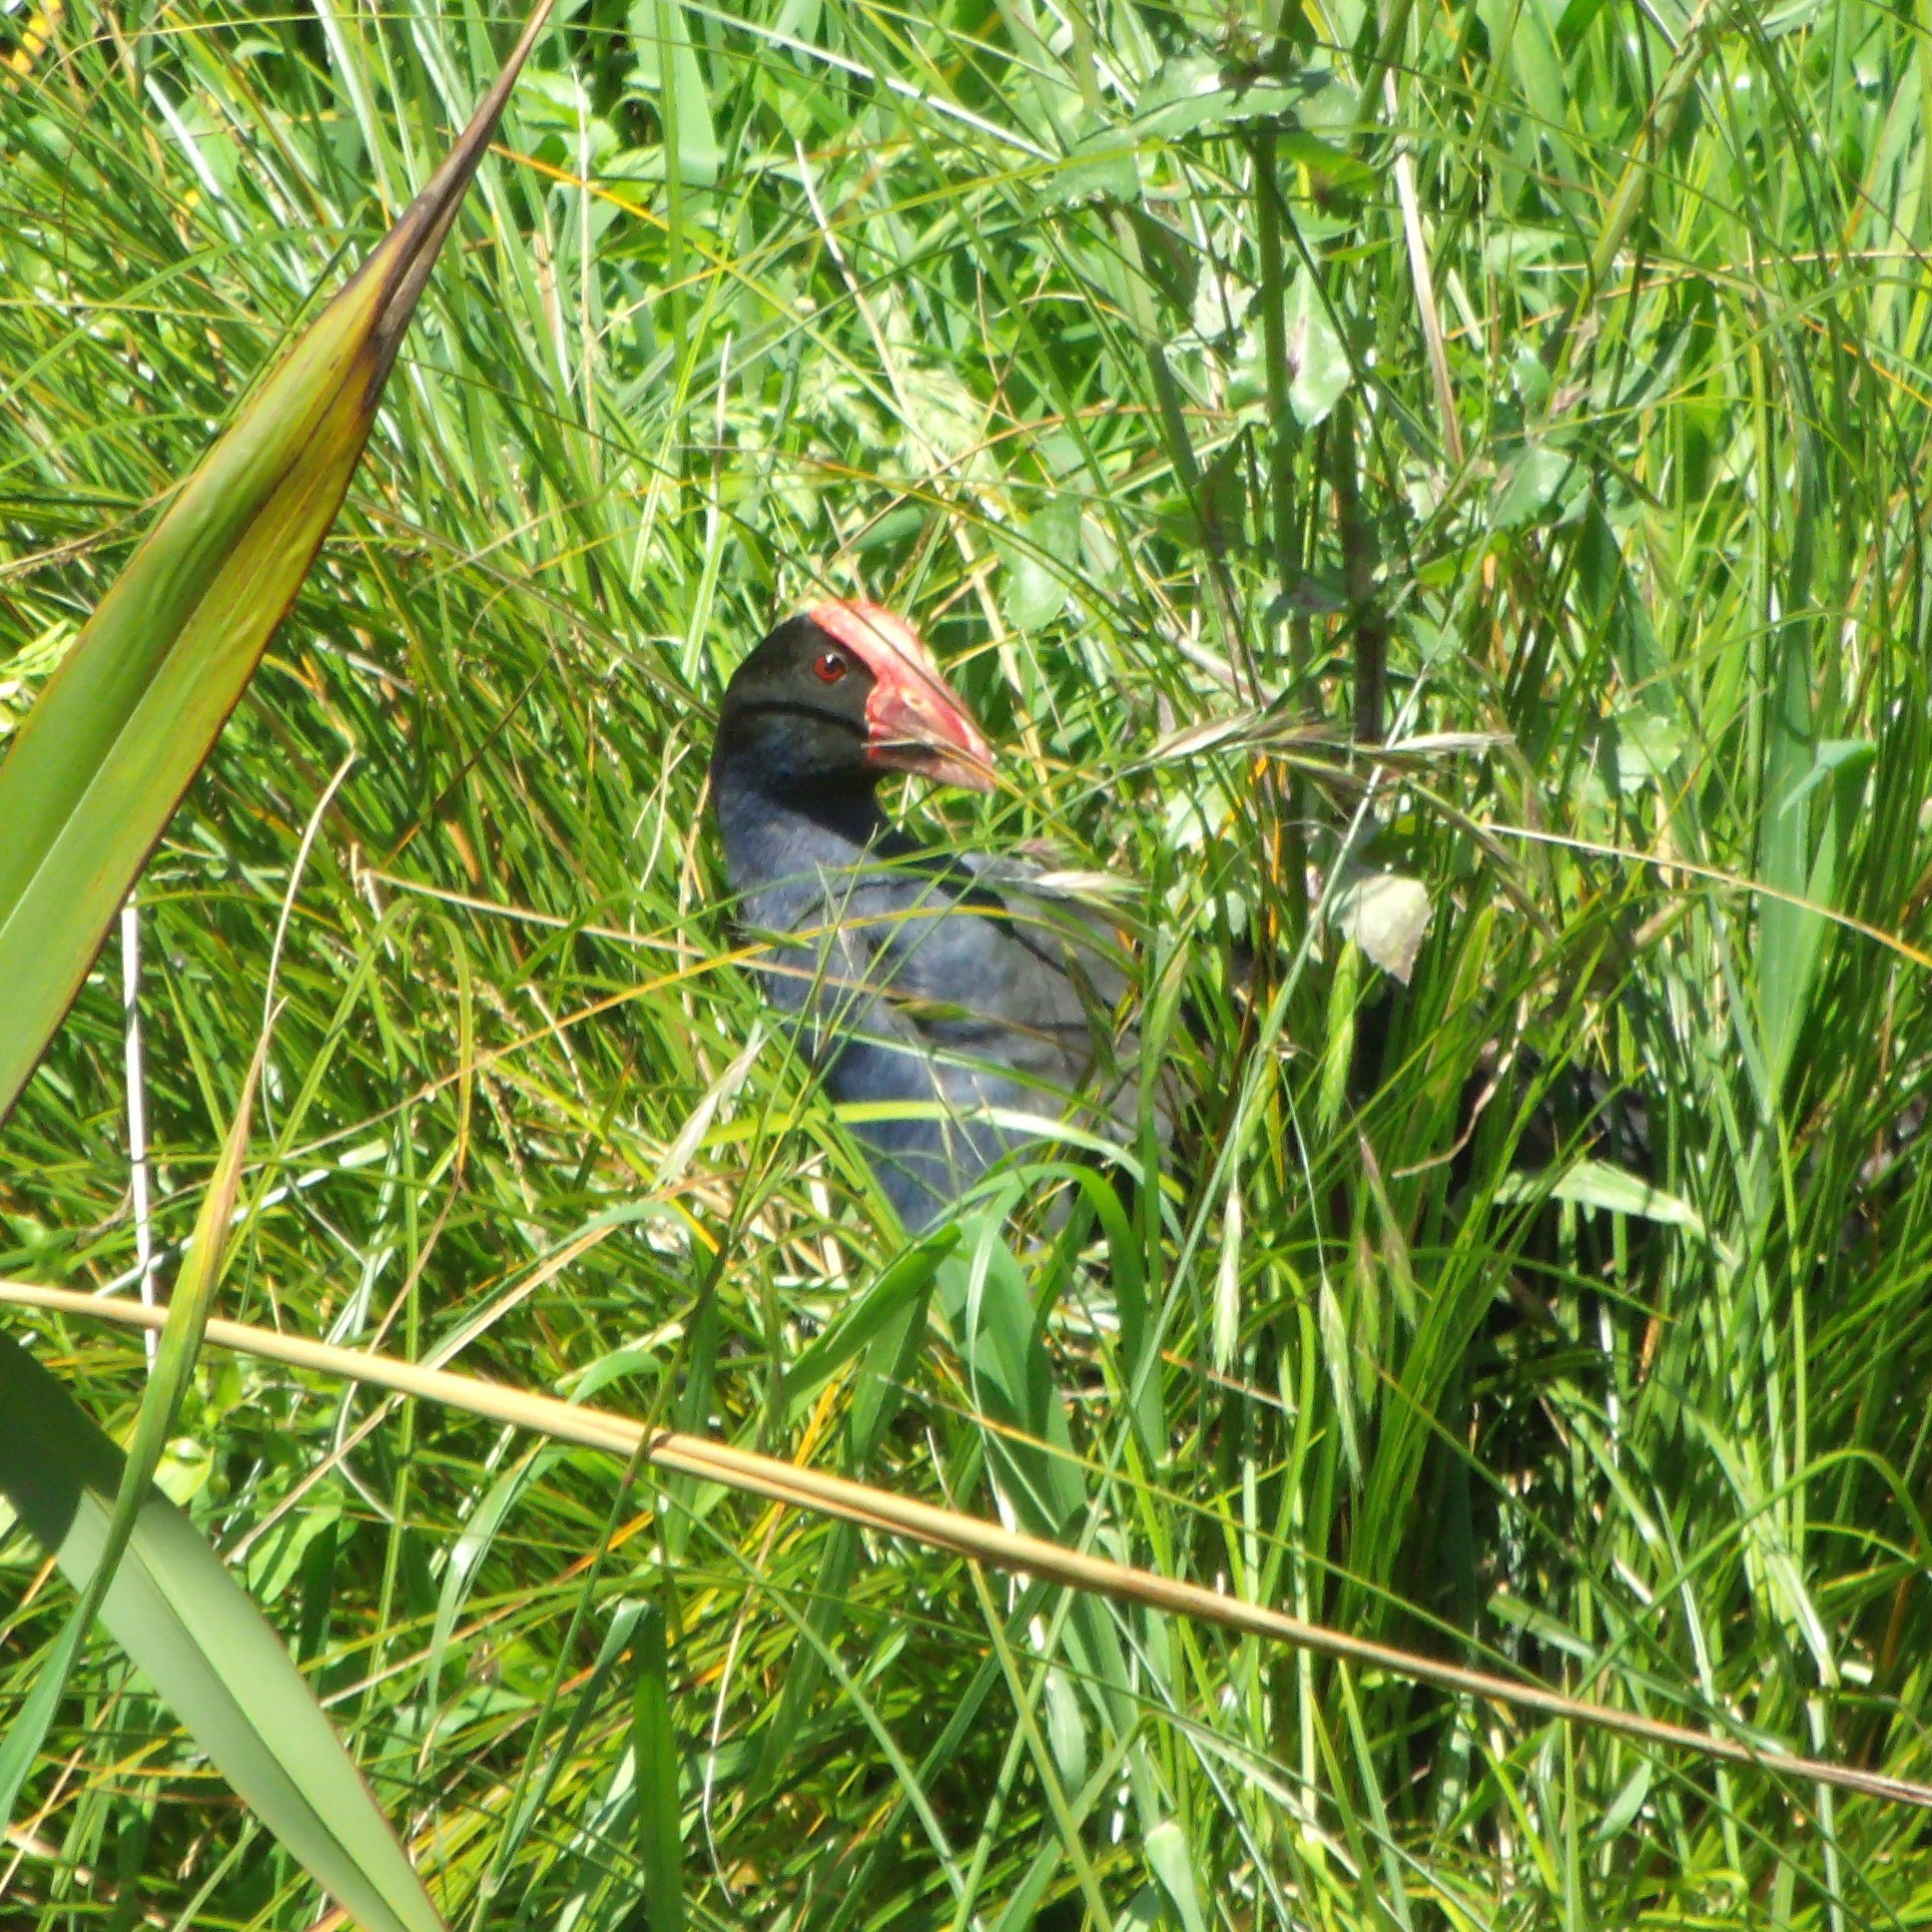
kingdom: Animalia
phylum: Chordata
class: Aves
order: Gruiformes
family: Rallidae
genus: Porphyrio
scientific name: Porphyrio melanotus
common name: Australasian swamphen
